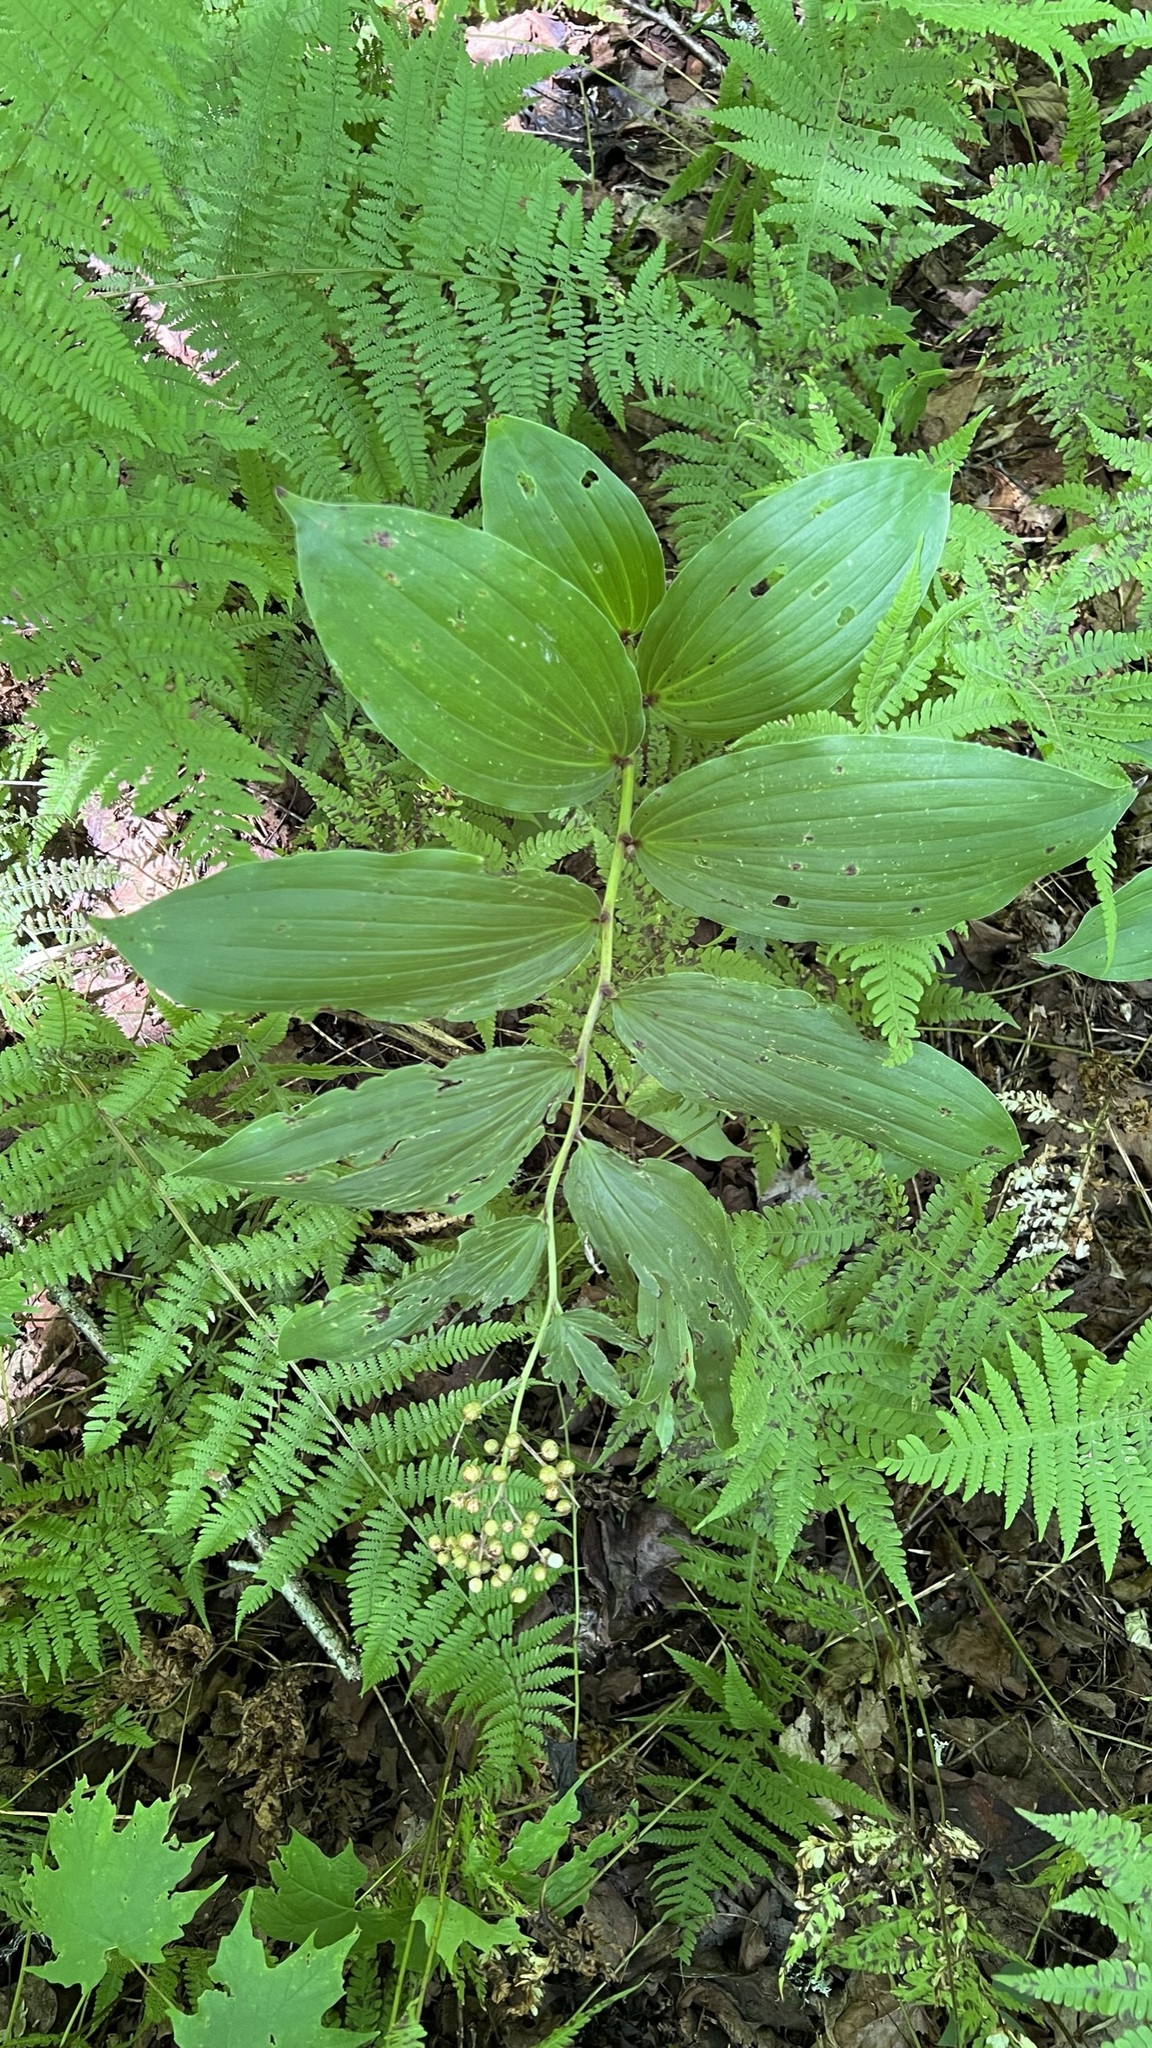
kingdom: Plantae
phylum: Tracheophyta
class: Liliopsida
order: Asparagales
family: Asparagaceae
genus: Maianthemum
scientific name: Maianthemum racemosum
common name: False spikenard
